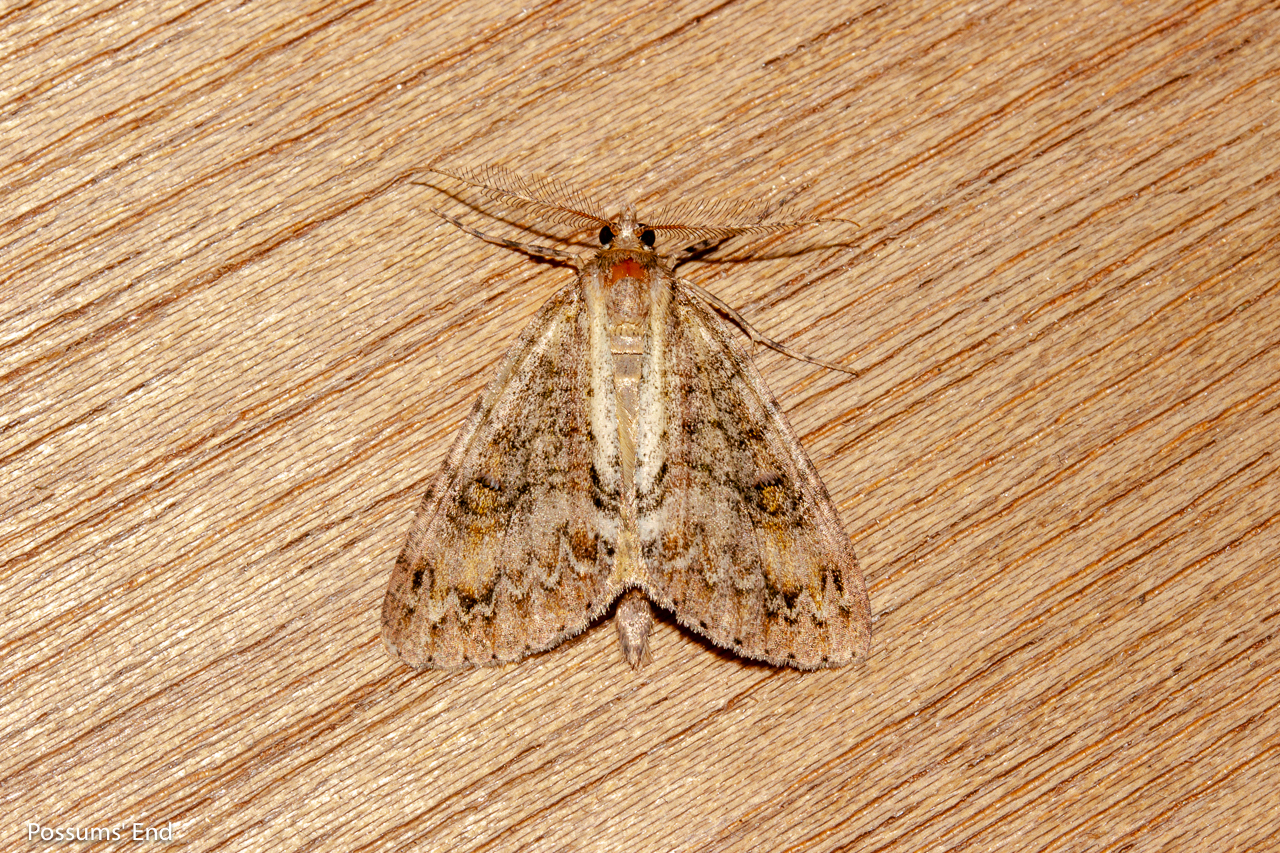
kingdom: Animalia
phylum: Arthropoda
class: Insecta
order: Lepidoptera
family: Geometridae
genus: Pseudocoremia
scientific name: Pseudocoremia suavis
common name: Common forest looper
